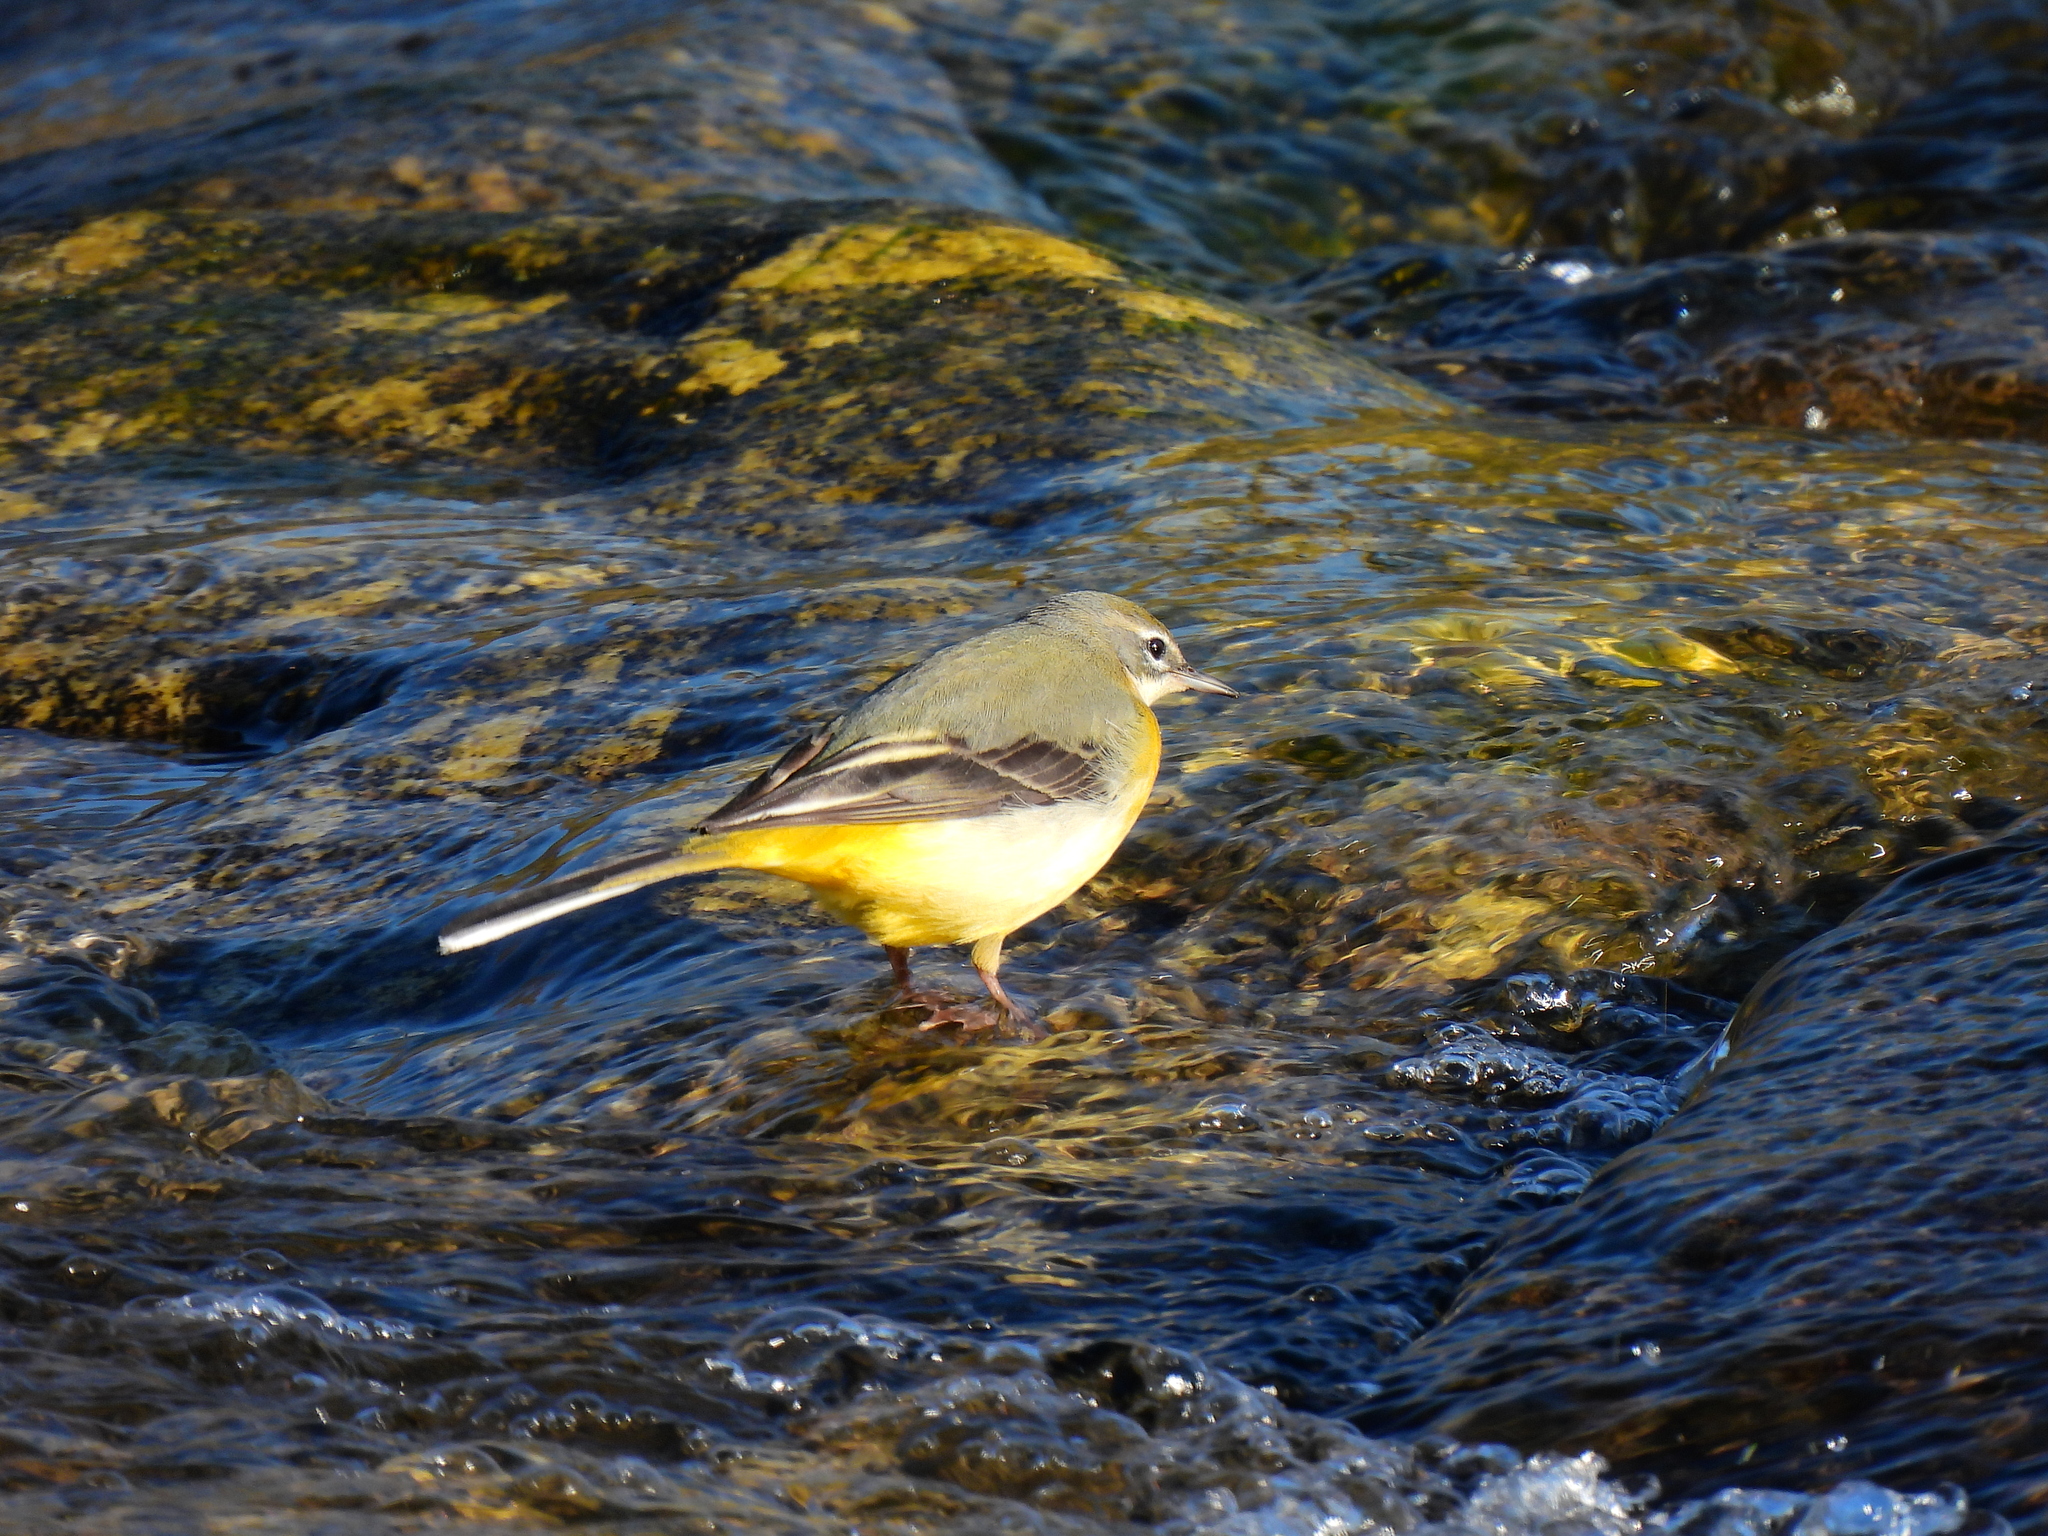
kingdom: Animalia
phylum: Chordata
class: Aves
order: Passeriformes
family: Motacillidae
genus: Motacilla
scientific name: Motacilla cinerea
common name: Grey wagtail
